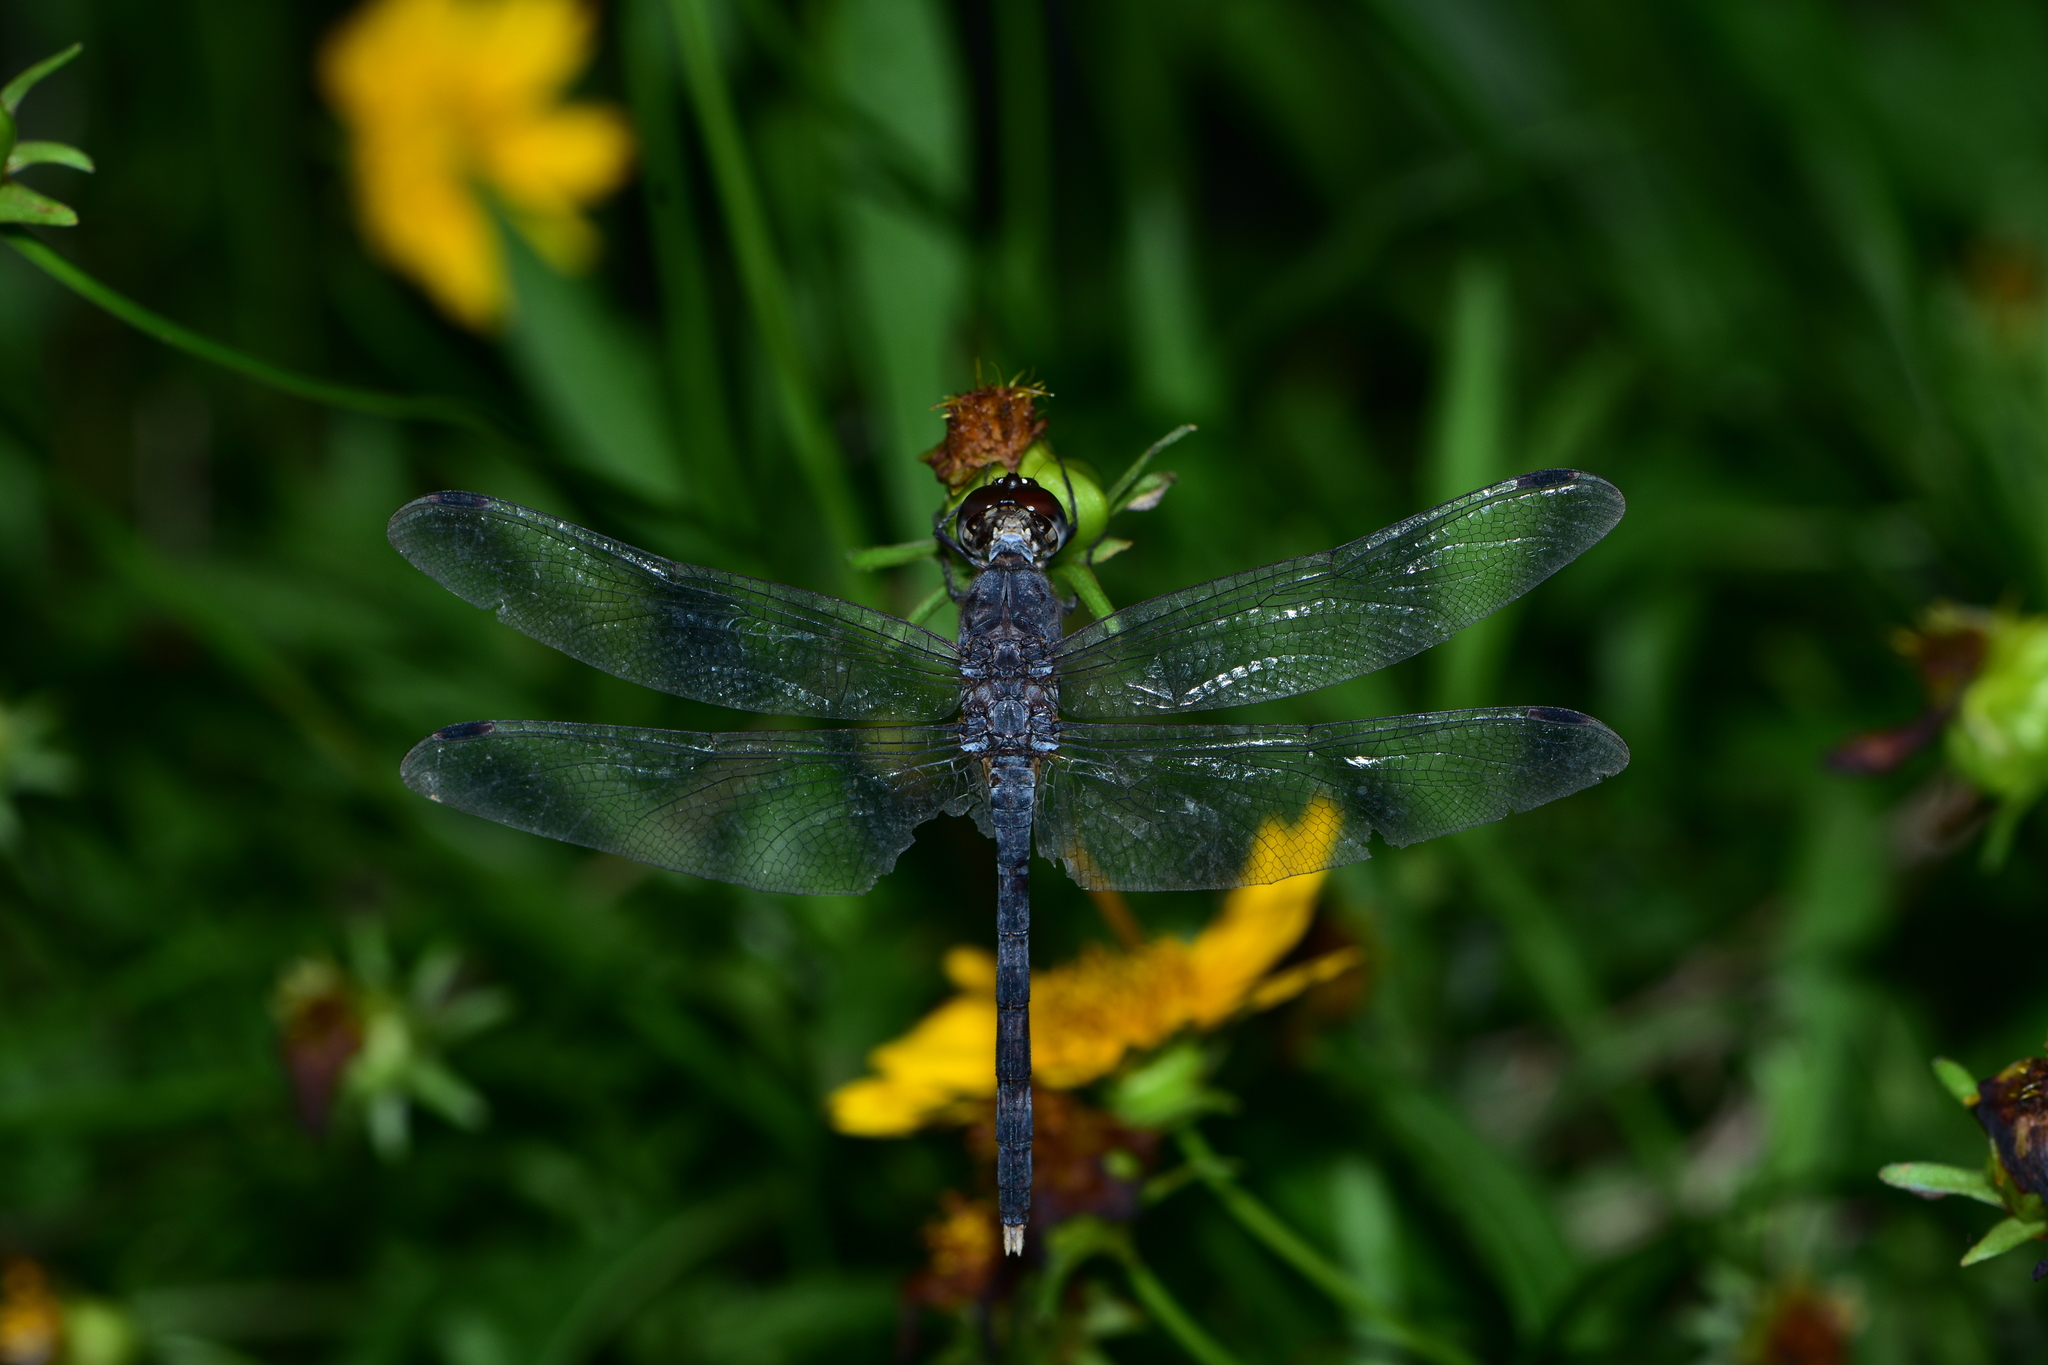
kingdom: Animalia
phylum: Arthropoda
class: Insecta
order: Odonata
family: Libellulidae
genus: Bradinopyga
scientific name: Bradinopyga geminata
